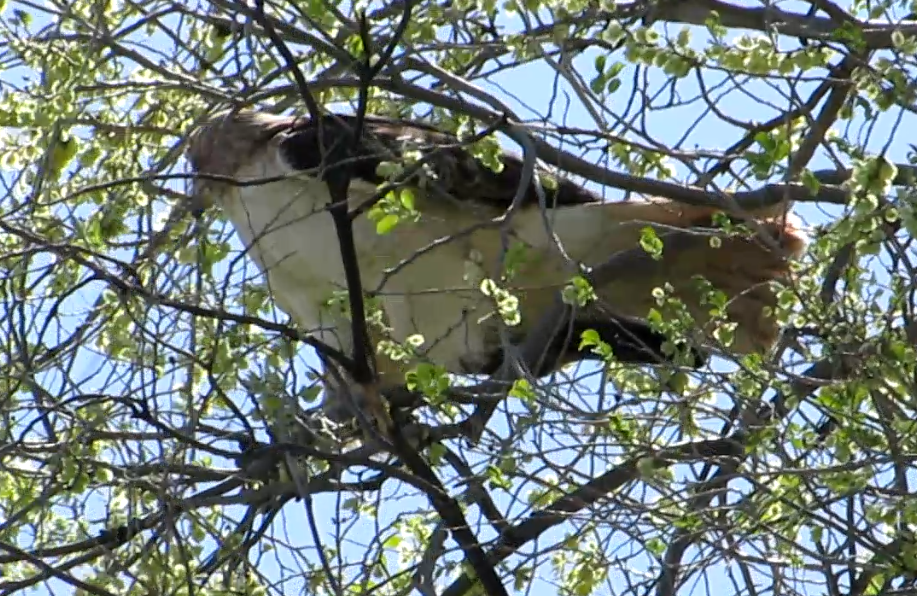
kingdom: Animalia
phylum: Chordata
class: Aves
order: Accipitriformes
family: Accipitridae
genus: Buteo
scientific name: Buteo jamaicensis
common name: Red-tailed hawk
